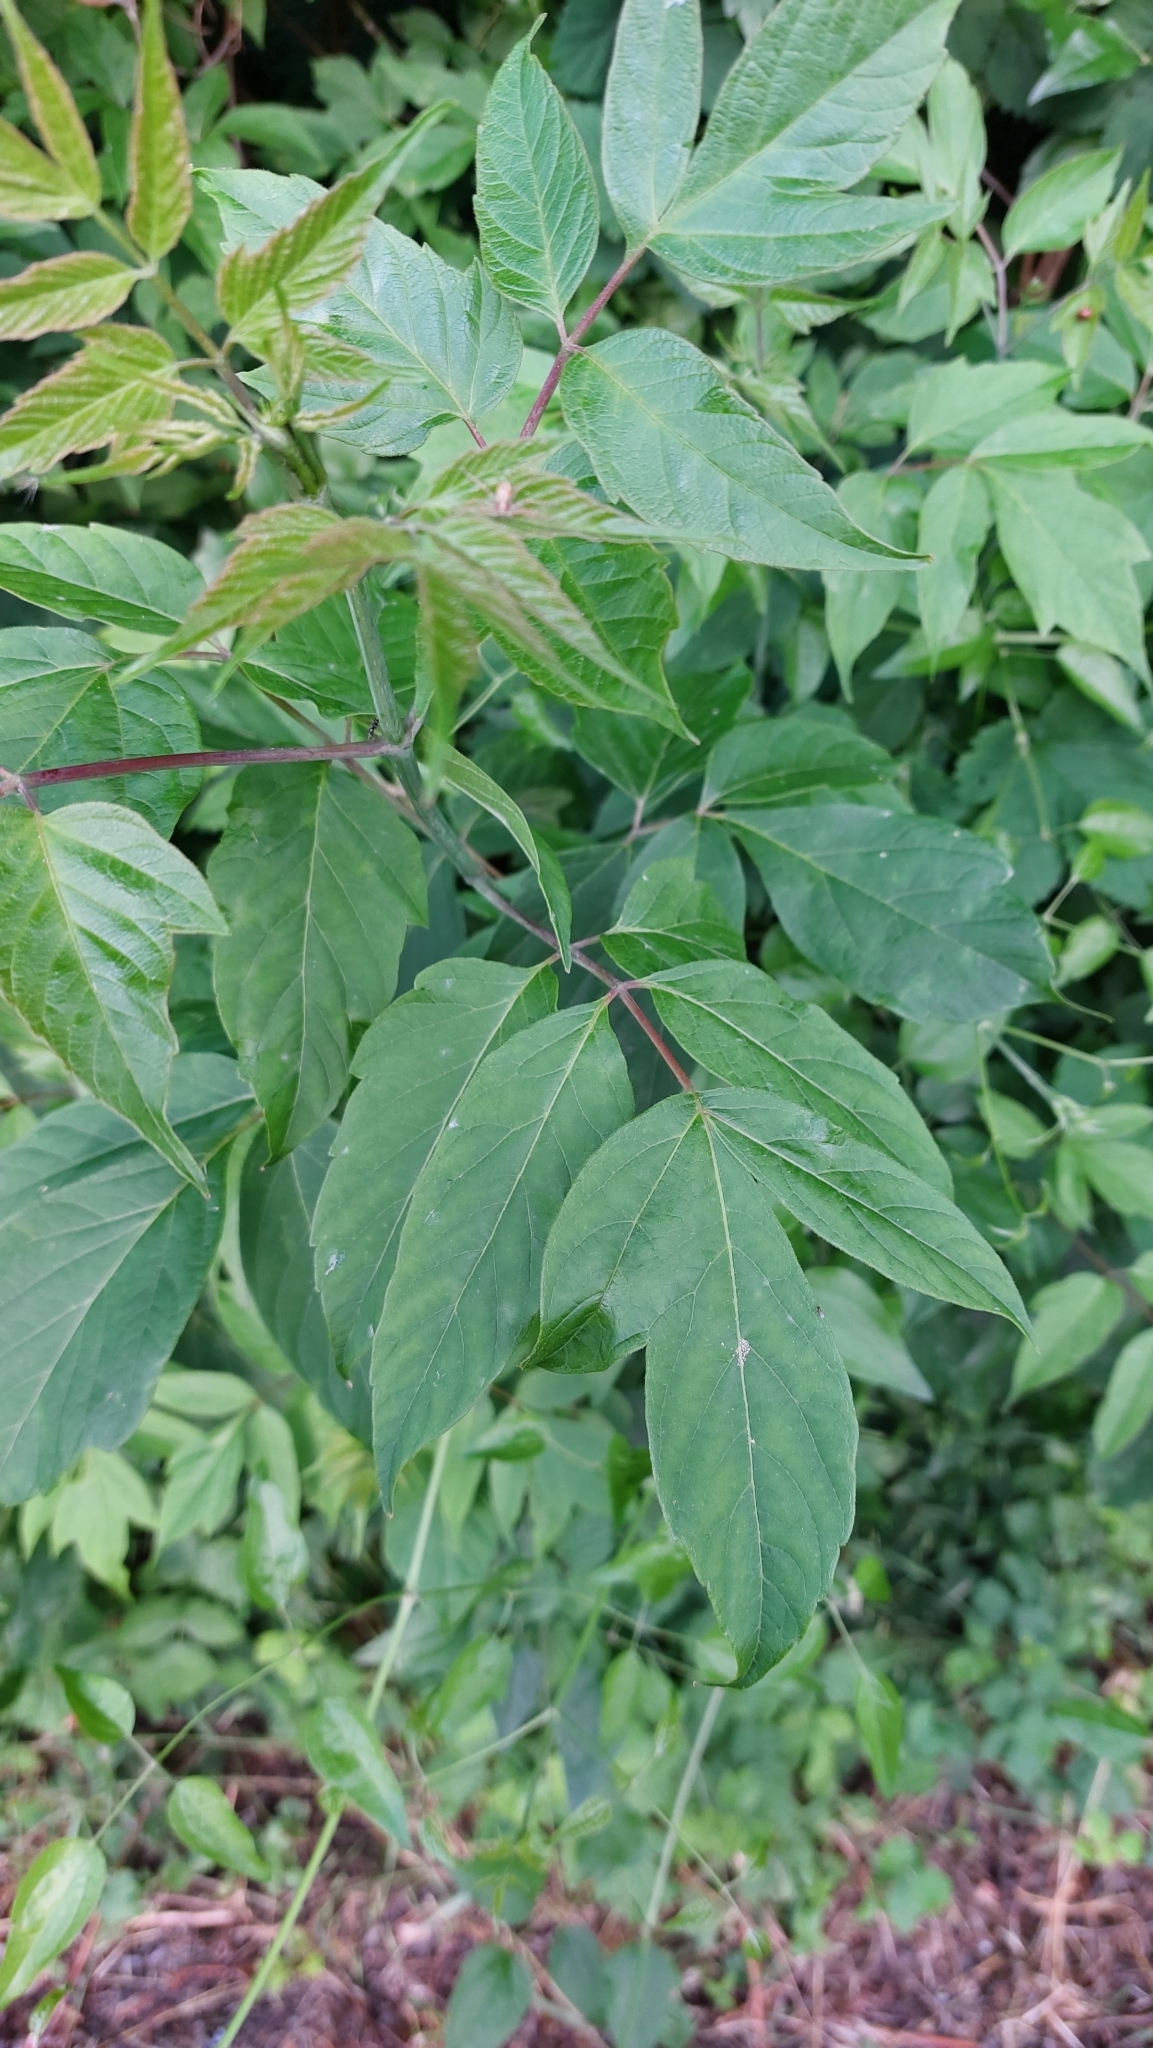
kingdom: Plantae
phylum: Tracheophyta
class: Magnoliopsida
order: Sapindales
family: Sapindaceae
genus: Acer
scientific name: Acer negundo
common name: Ashleaf maple
